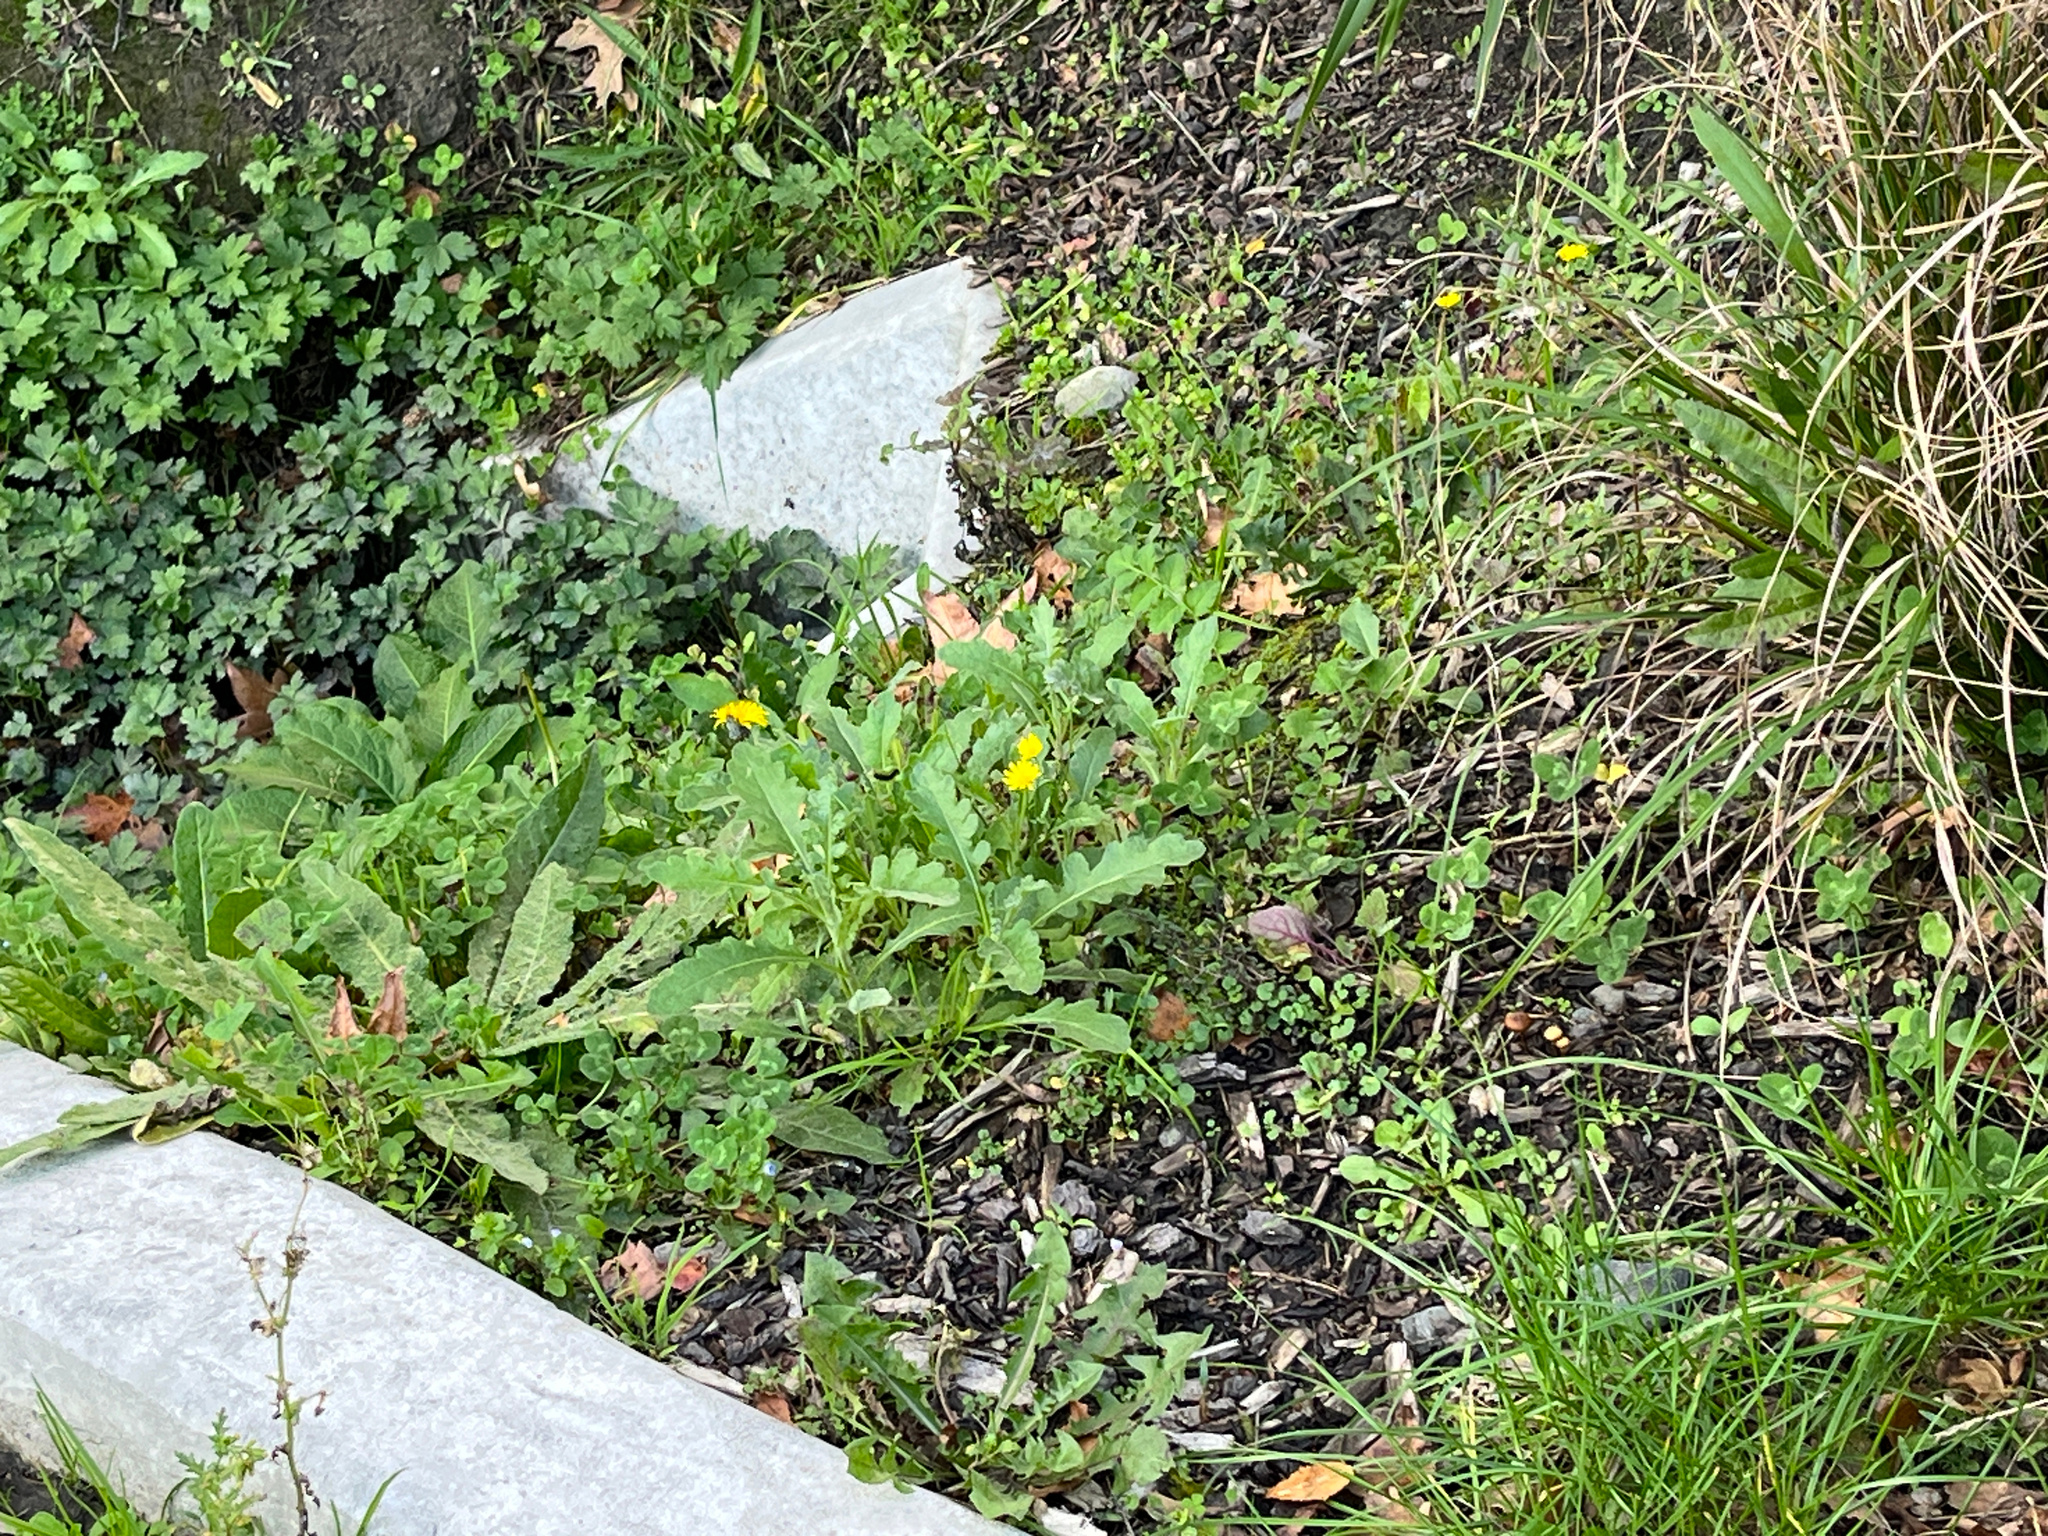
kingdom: Plantae
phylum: Tracheophyta
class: Magnoliopsida
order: Asterales
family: Asteraceae
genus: Senecio
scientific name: Senecio glomeratus
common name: Cutleaf burnweed
